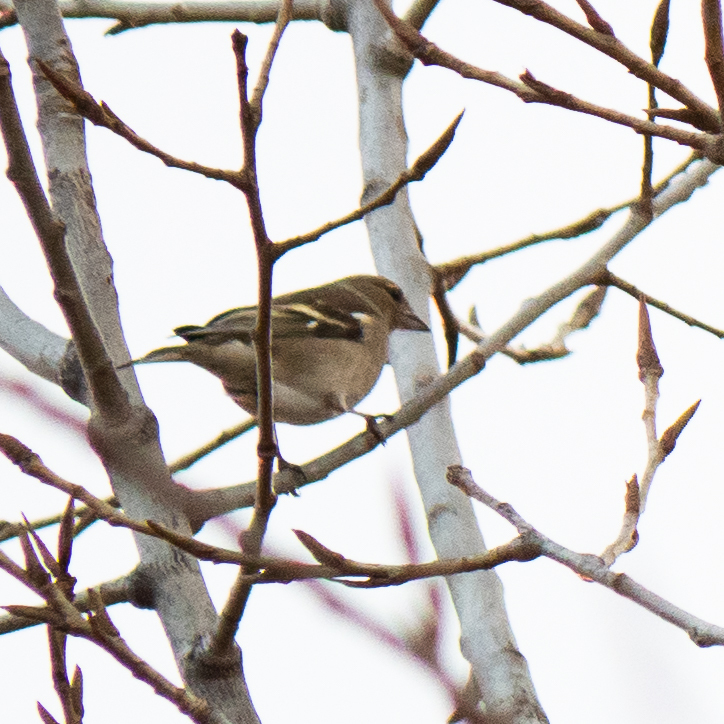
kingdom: Animalia
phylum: Chordata
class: Aves
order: Passeriformes
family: Fringillidae
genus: Fringilla
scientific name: Fringilla coelebs
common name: Common chaffinch
